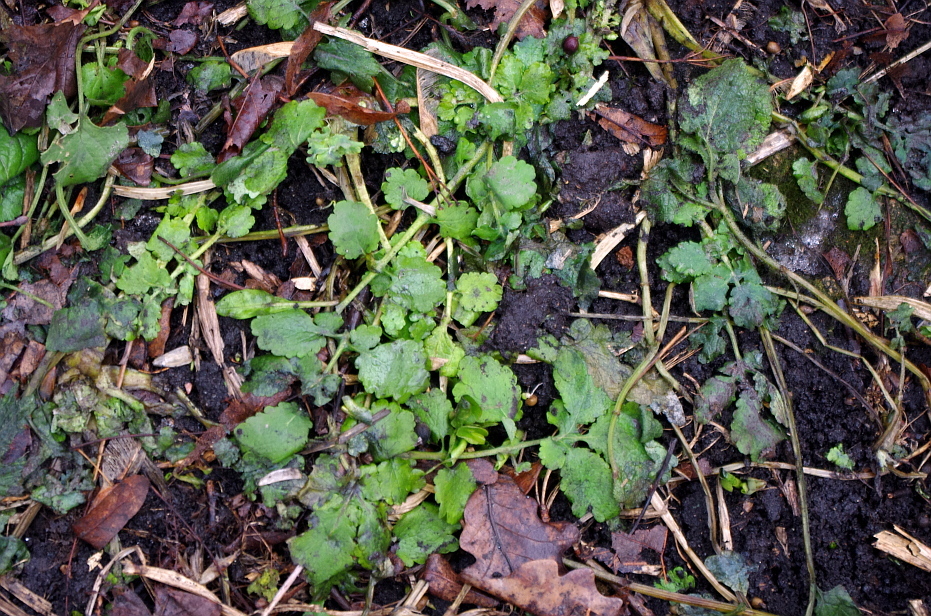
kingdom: Plantae
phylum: Tracheophyta
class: Magnoliopsida
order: Ranunculales
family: Papaveraceae
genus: Chelidonium
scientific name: Chelidonium majus
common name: Greater celandine
